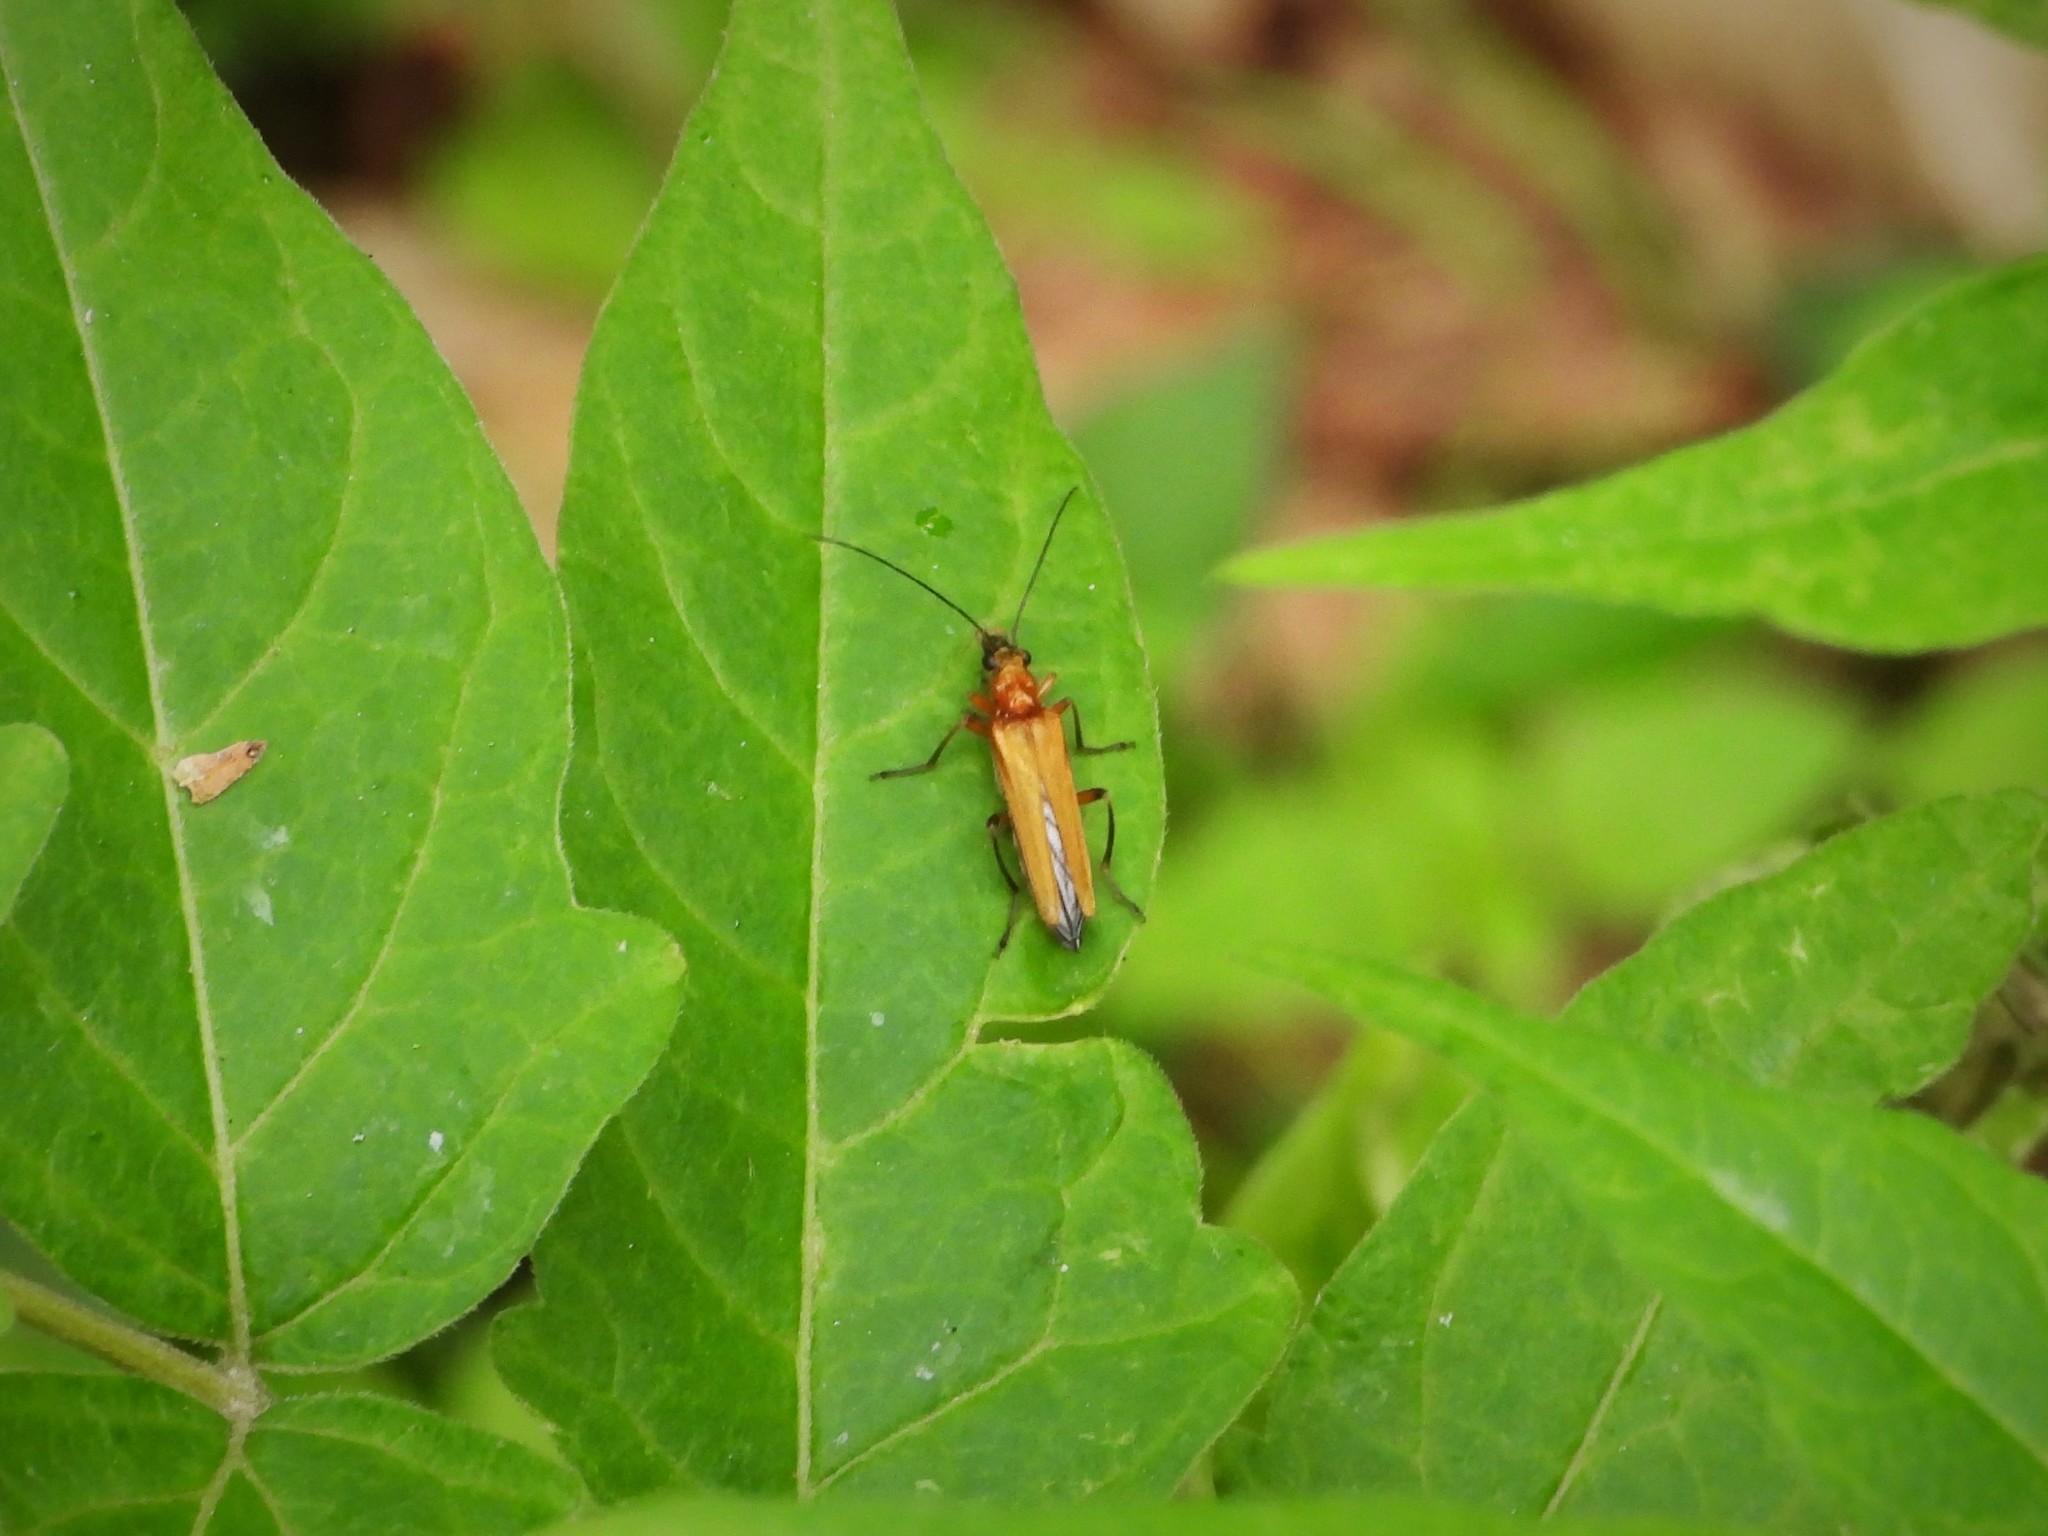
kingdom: Animalia
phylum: Arthropoda
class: Insecta
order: Coleoptera
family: Oedemeridae
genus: Oedemera
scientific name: Oedemera podagrariae
